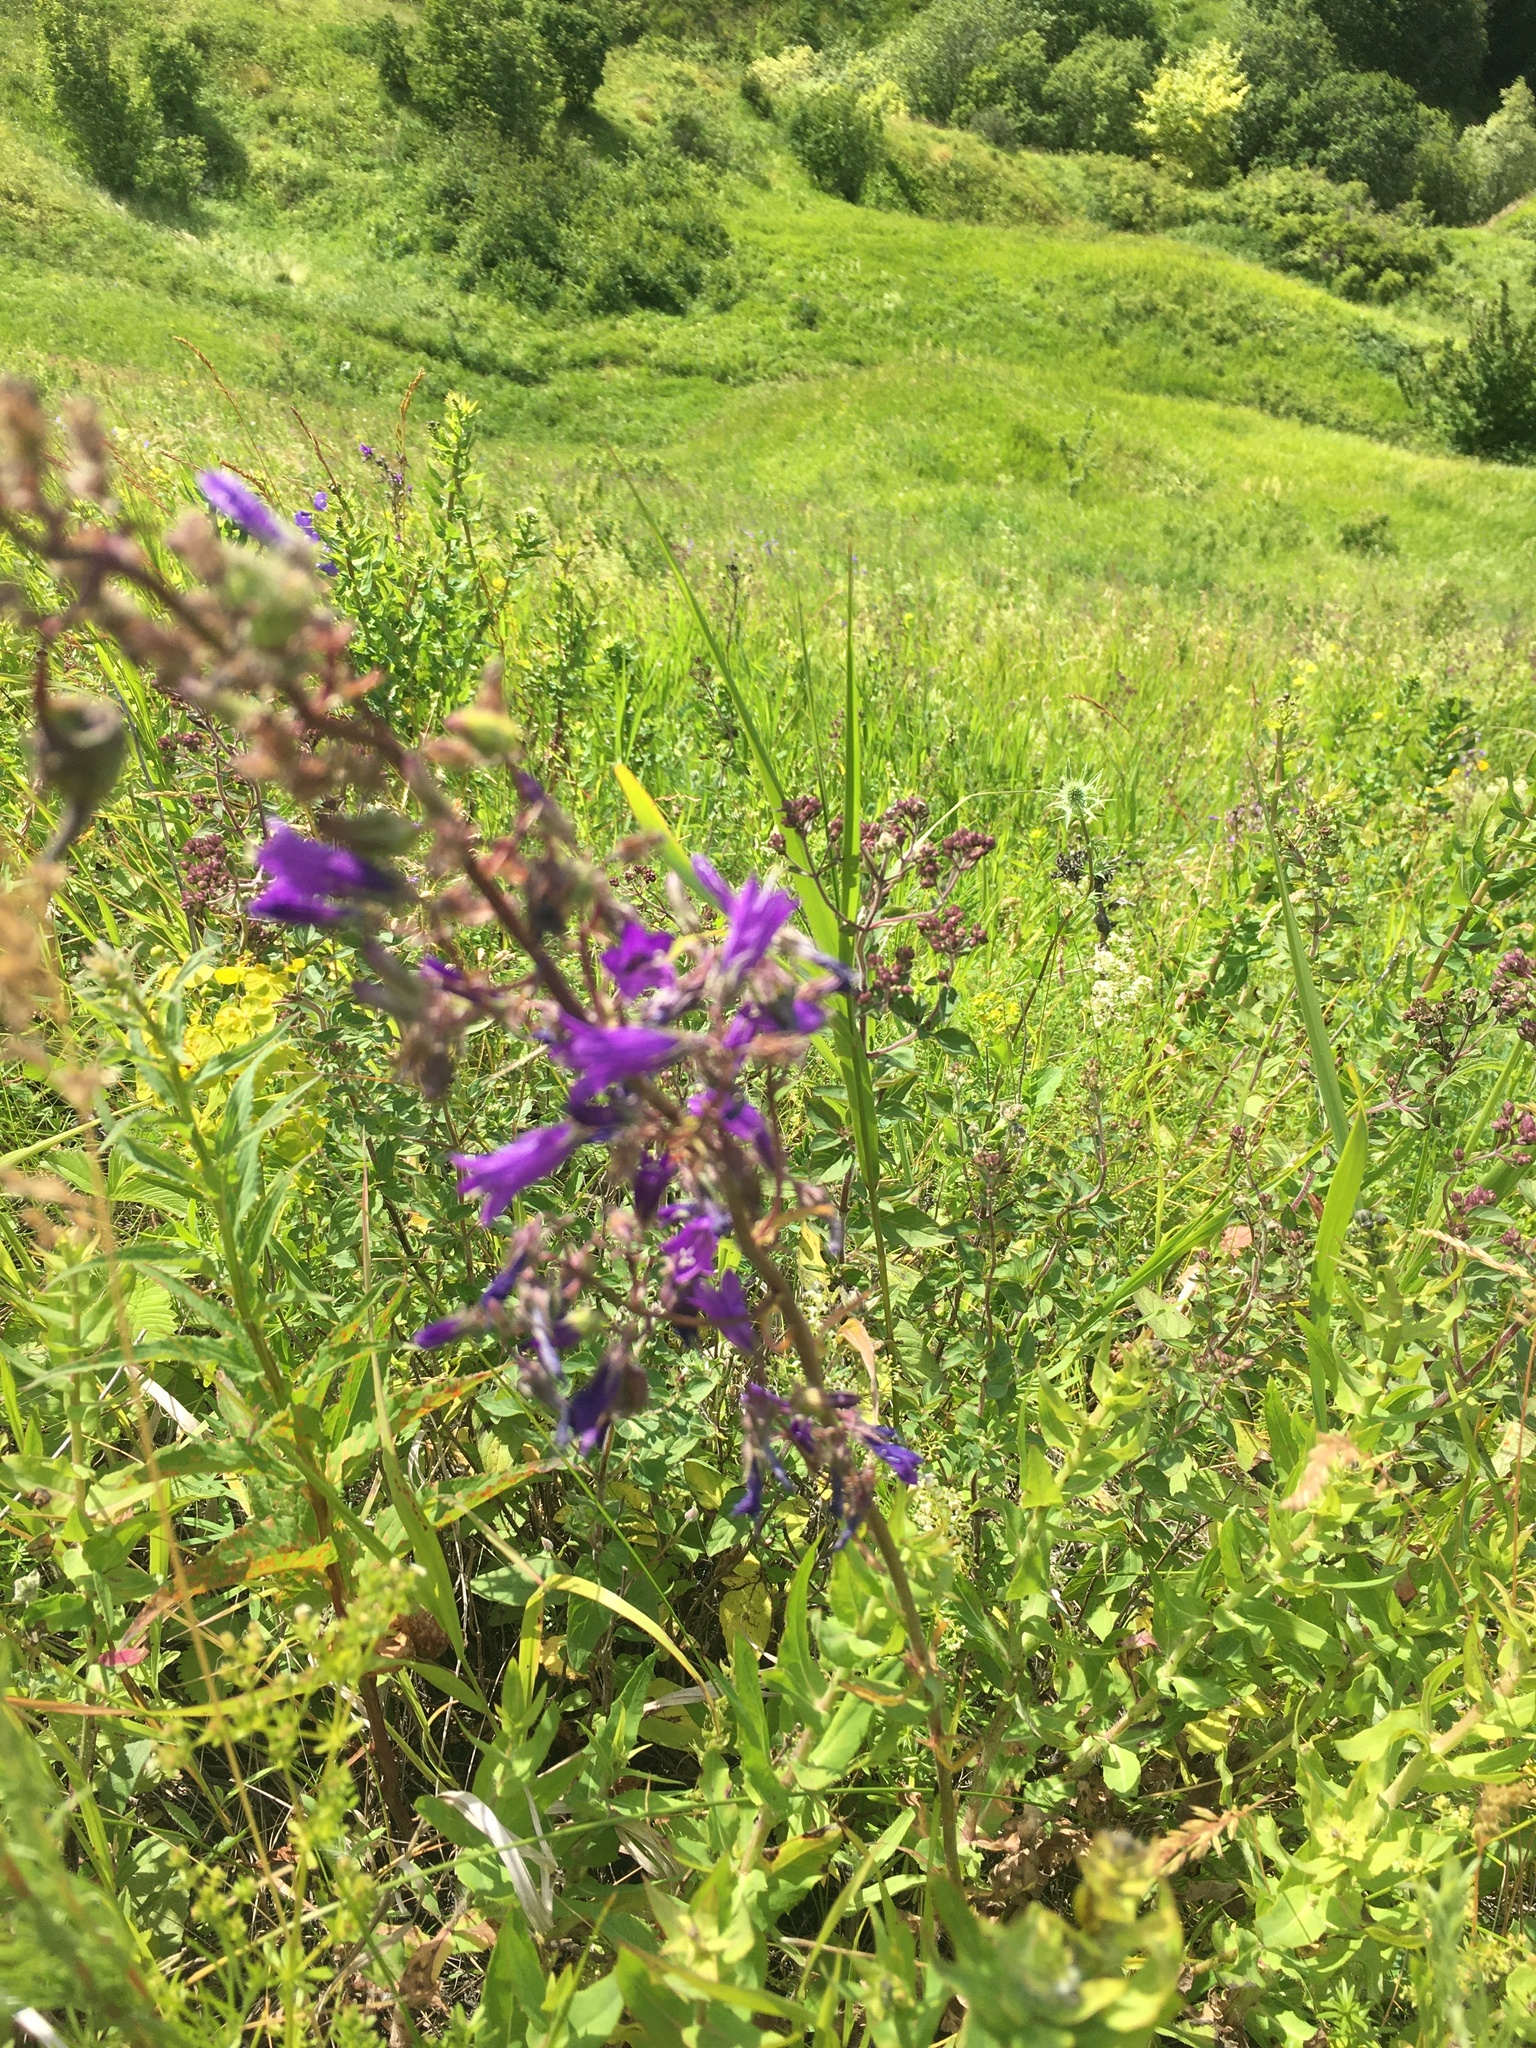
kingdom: Plantae
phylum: Tracheophyta
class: Magnoliopsida
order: Asterales
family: Campanulaceae
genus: Campanula
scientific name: Campanula sibirica
